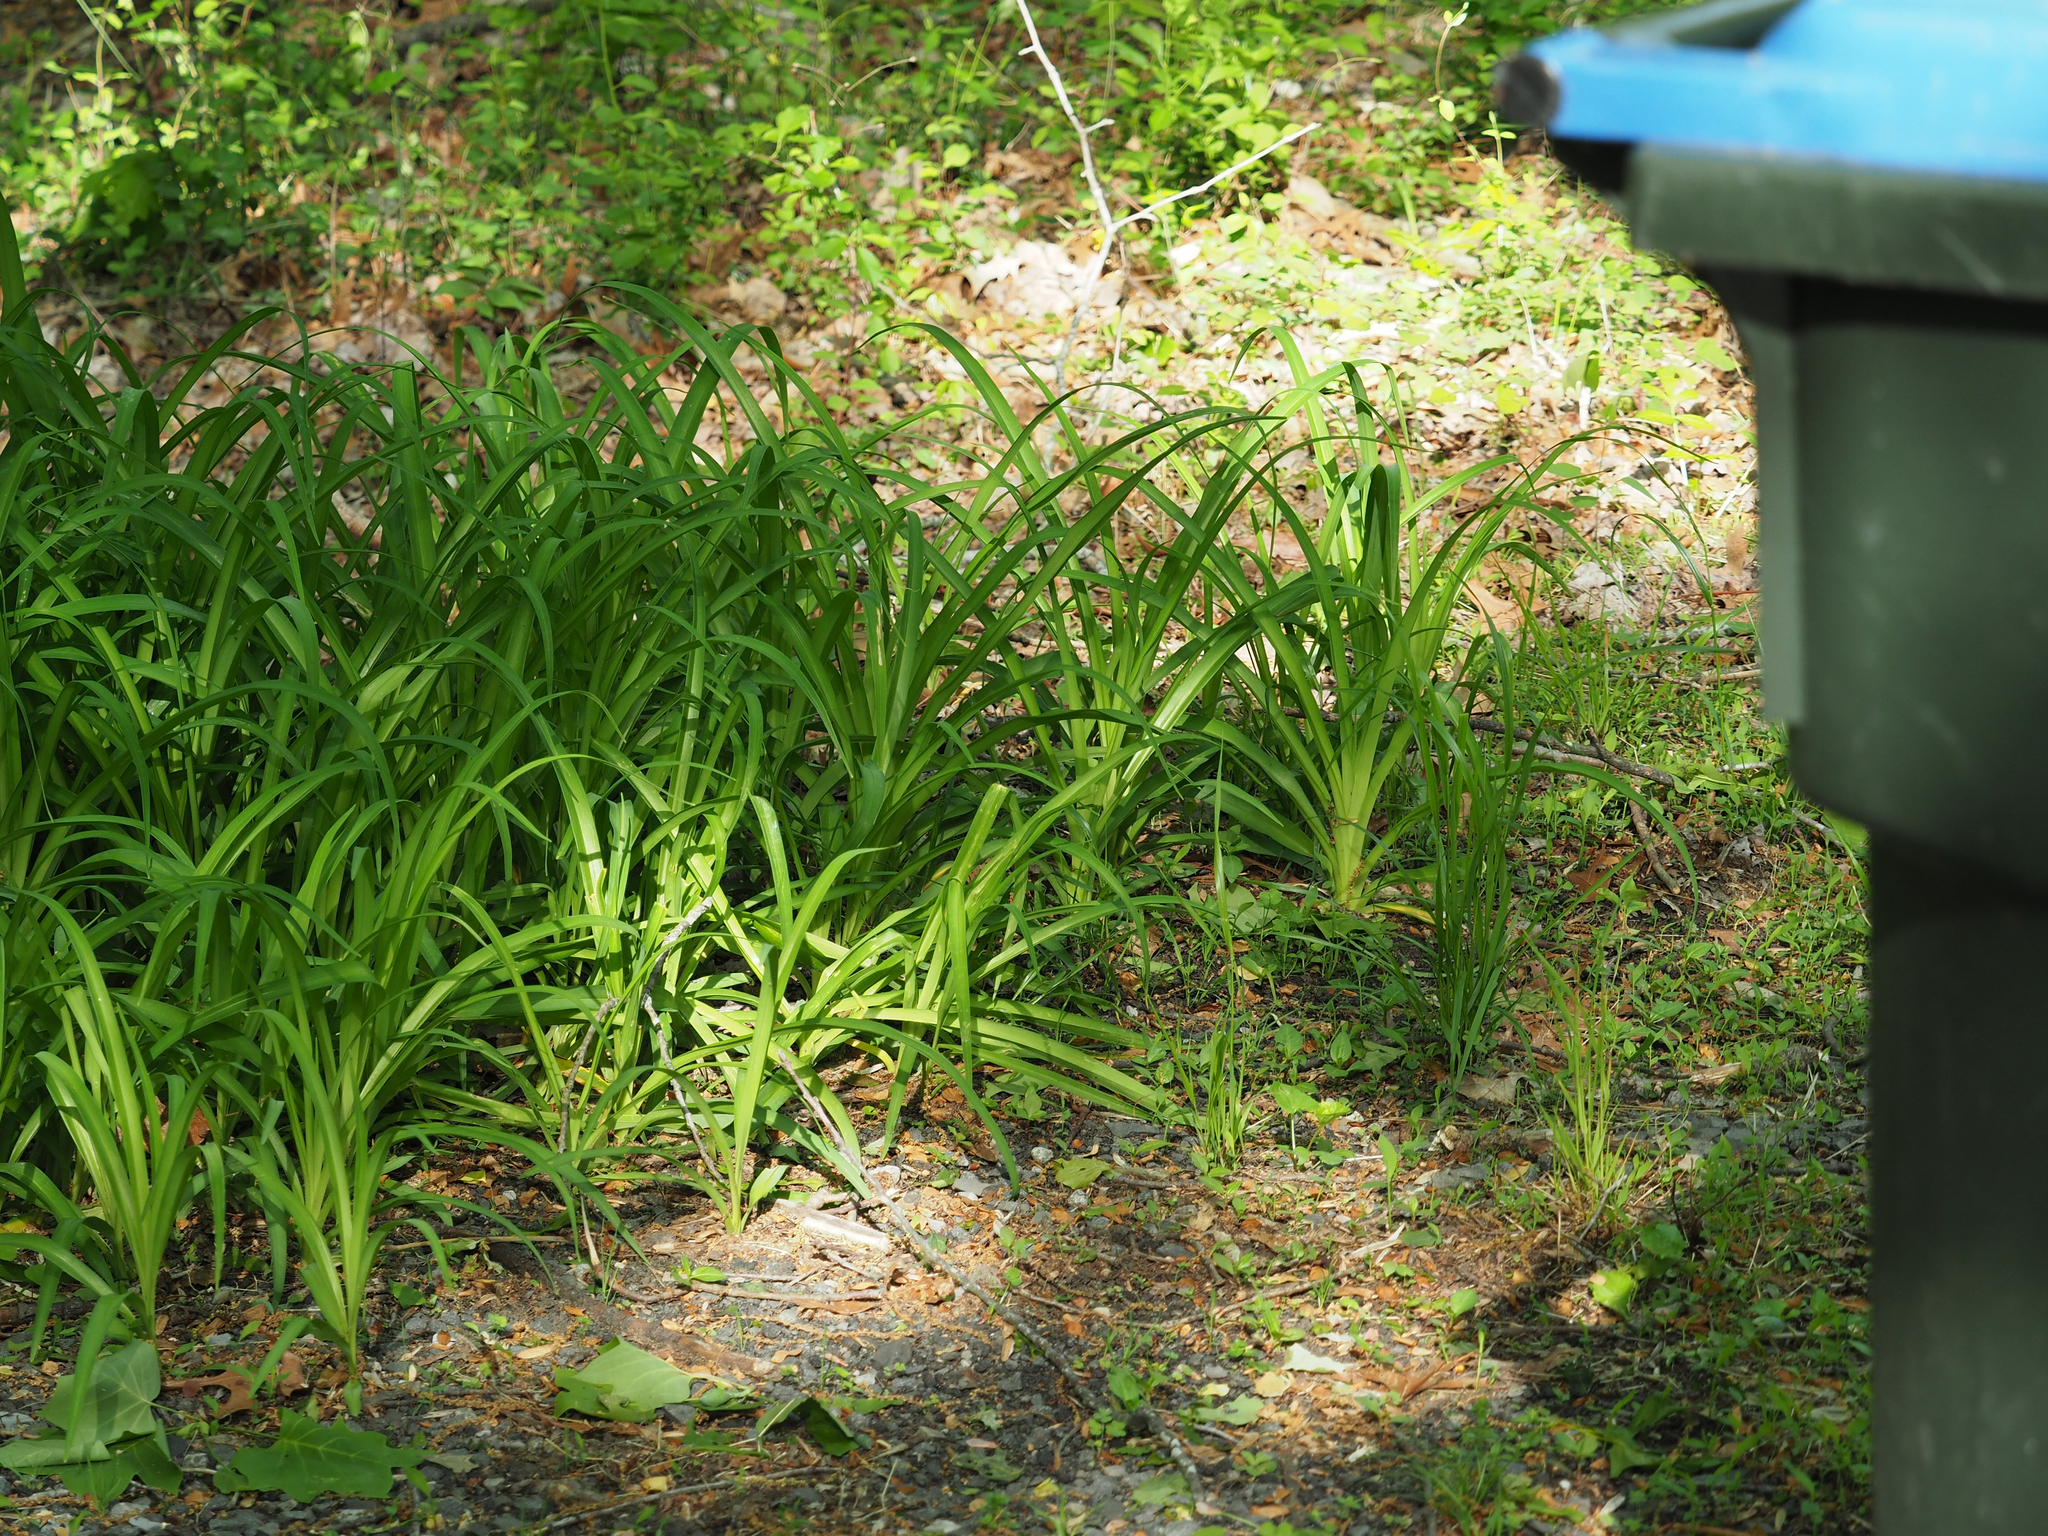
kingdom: Plantae
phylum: Tracheophyta
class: Liliopsida
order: Asparagales
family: Asphodelaceae
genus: Hemerocallis
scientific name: Hemerocallis fulva
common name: Orange day-lily
